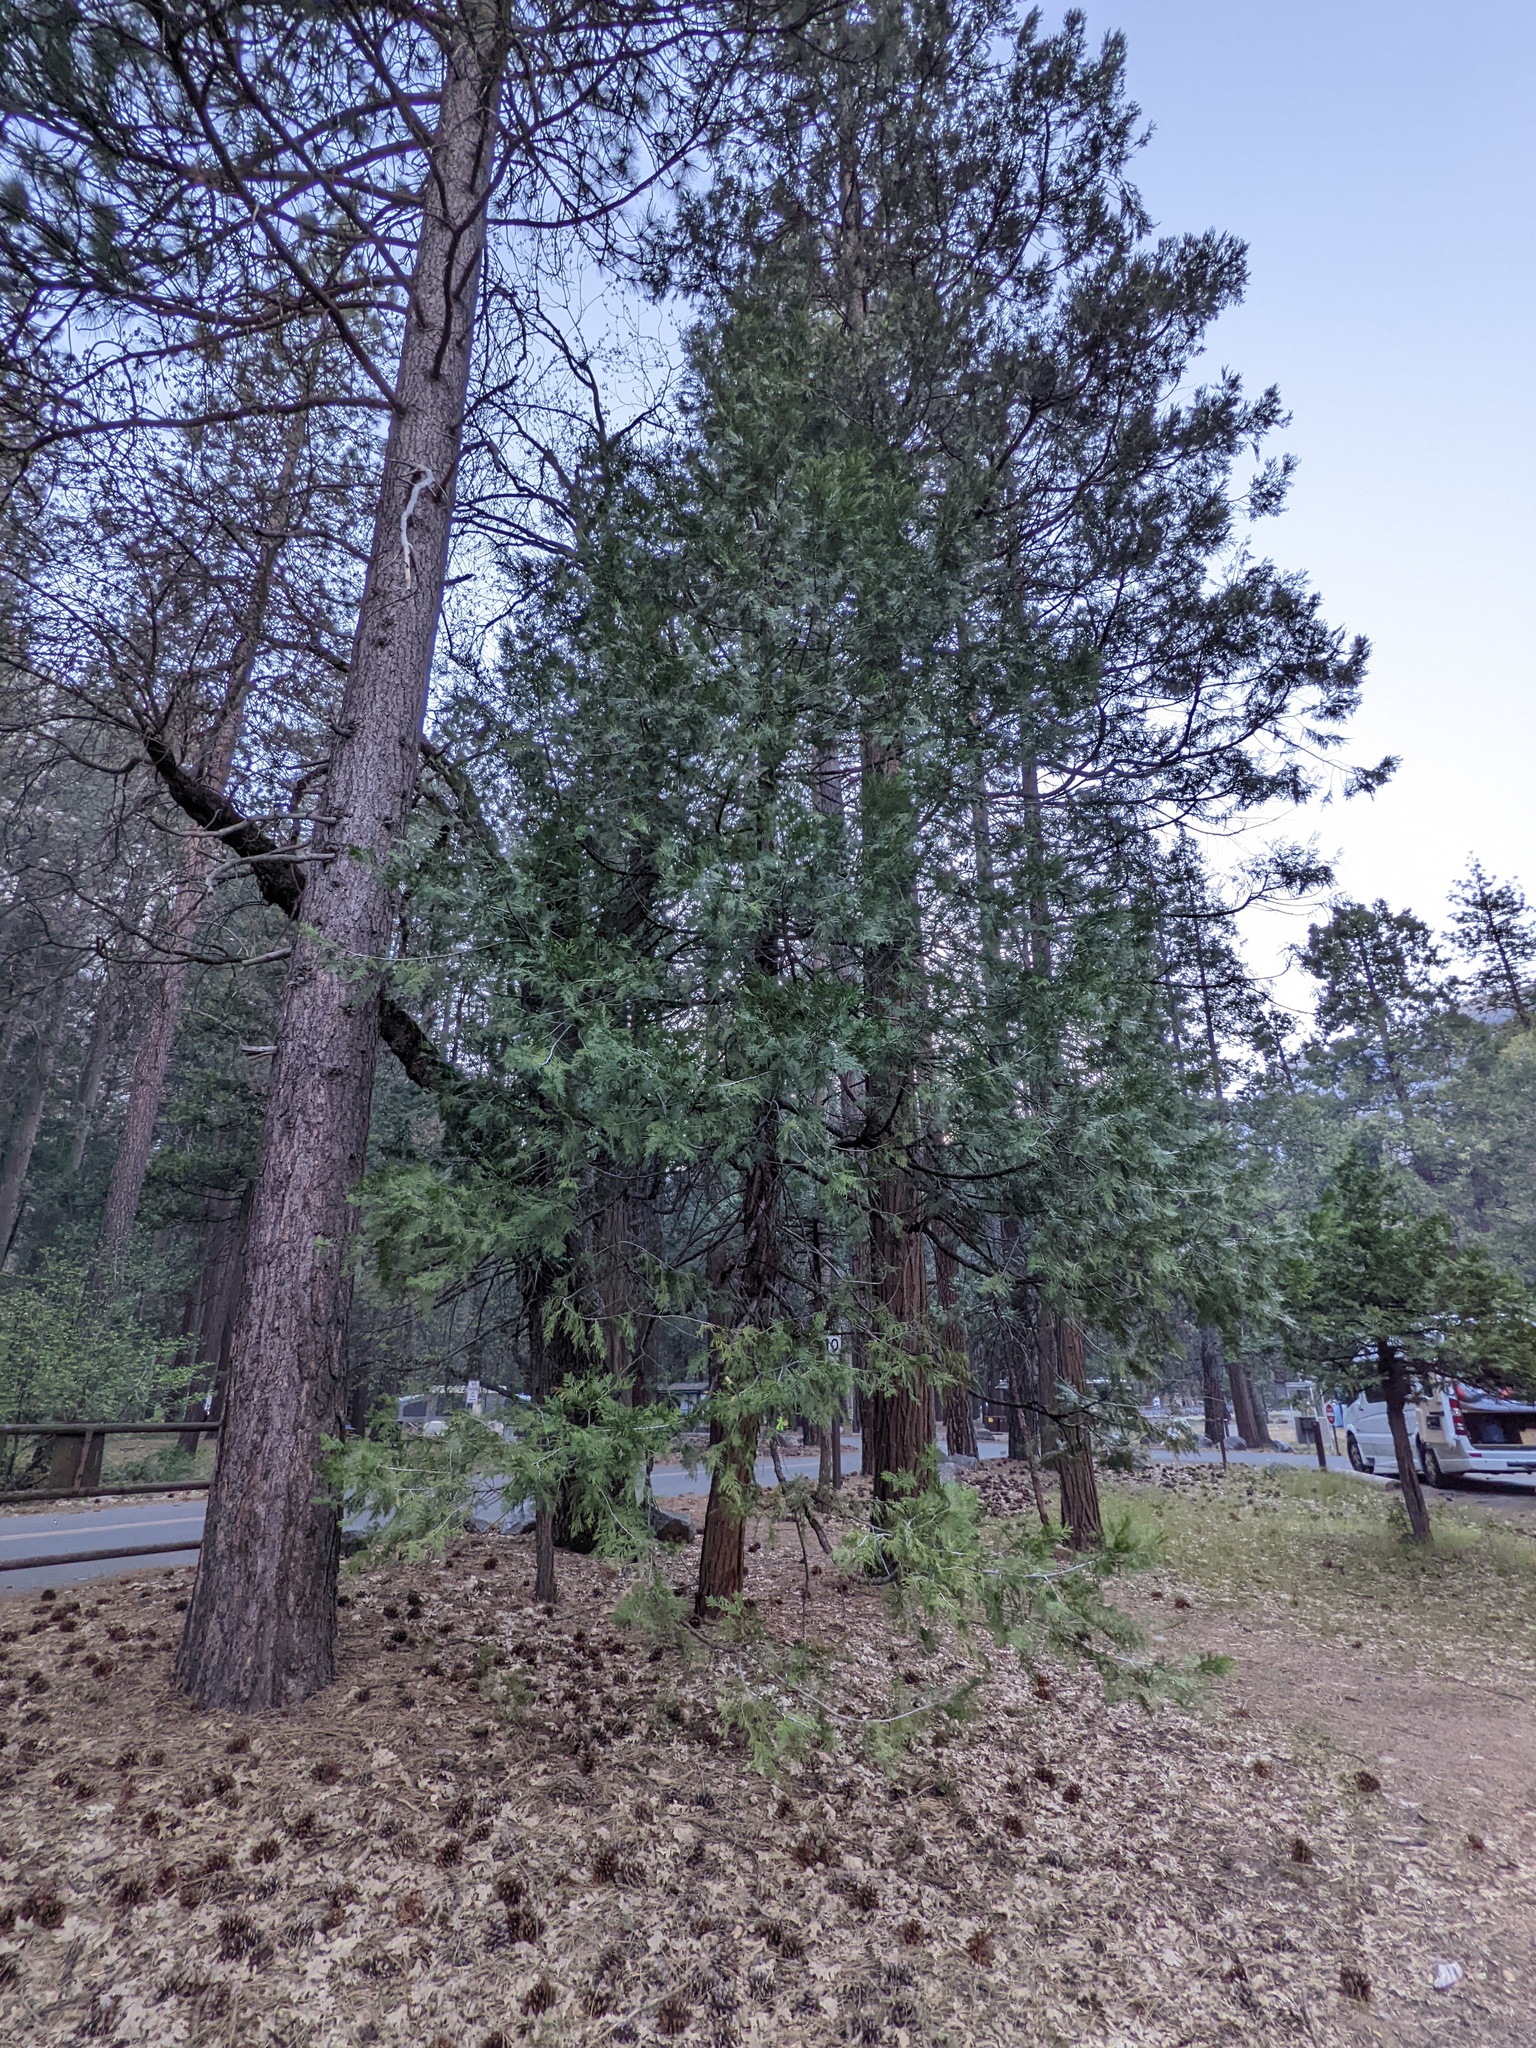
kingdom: Plantae
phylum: Tracheophyta
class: Pinopsida
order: Pinales
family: Cupressaceae
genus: Calocedrus
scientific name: Calocedrus decurrens
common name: Californian incense-cedar
